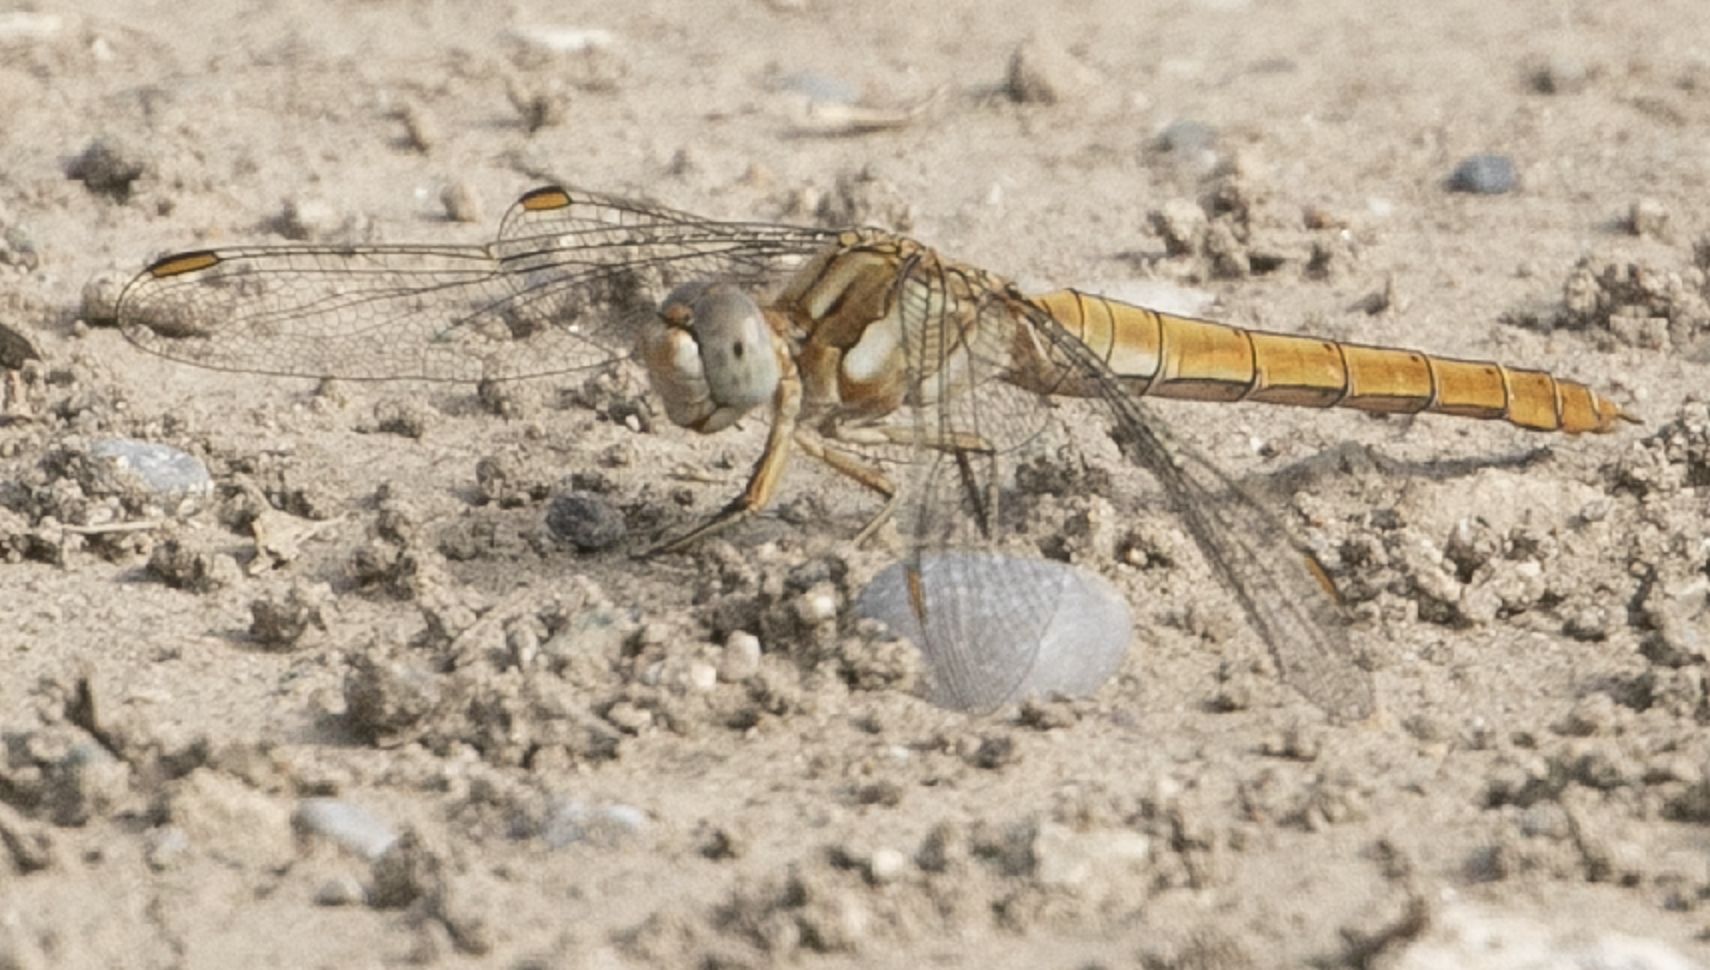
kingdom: Animalia
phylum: Arthropoda
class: Insecta
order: Odonata
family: Libellulidae
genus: Orthetrum
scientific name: Orthetrum brunneum
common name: Southern skimmer
